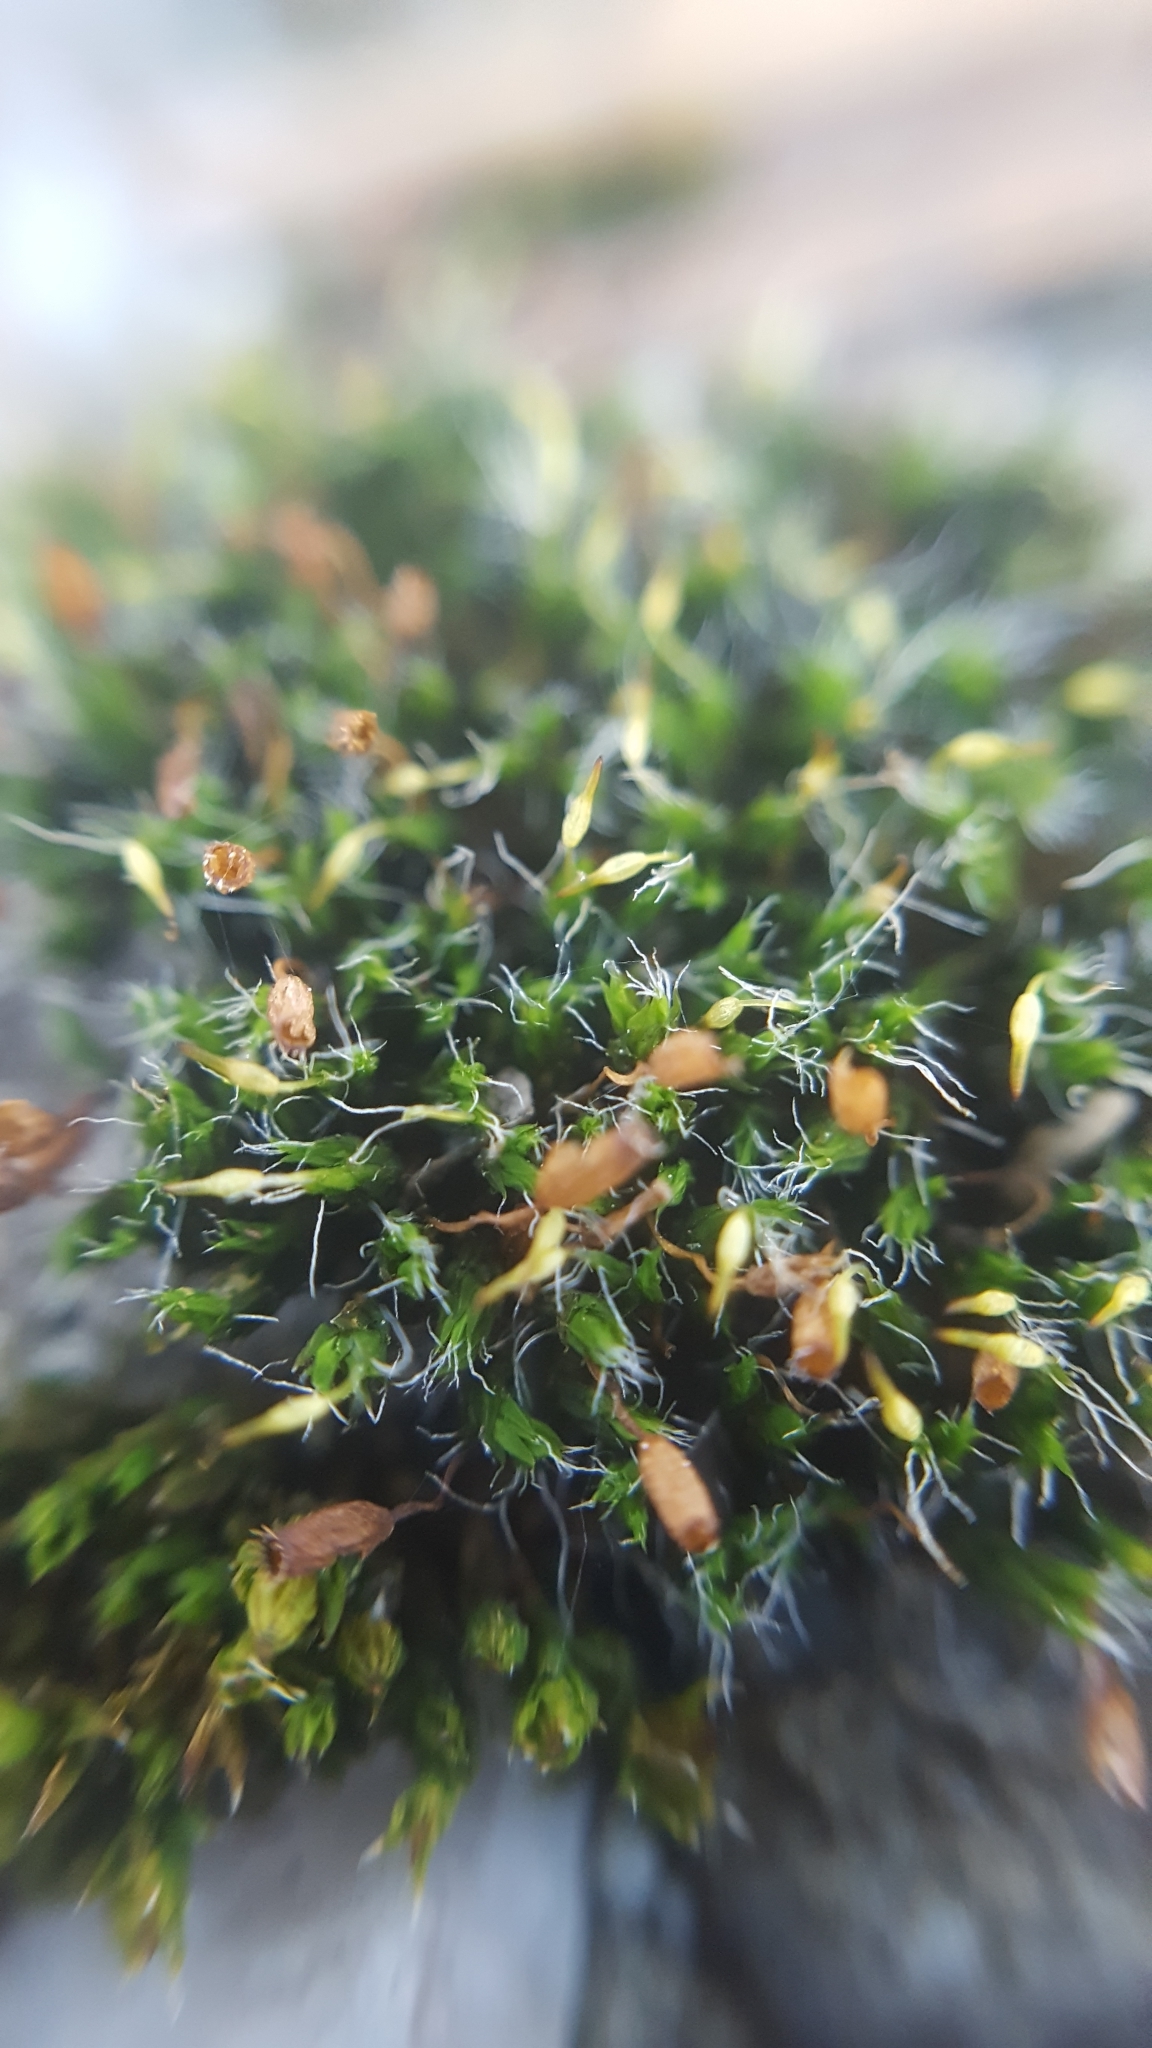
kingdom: Plantae
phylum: Bryophyta
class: Bryopsida
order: Grimmiales
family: Grimmiaceae
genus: Grimmia
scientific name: Grimmia pulvinata
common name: Grey-cushioned grimmia
